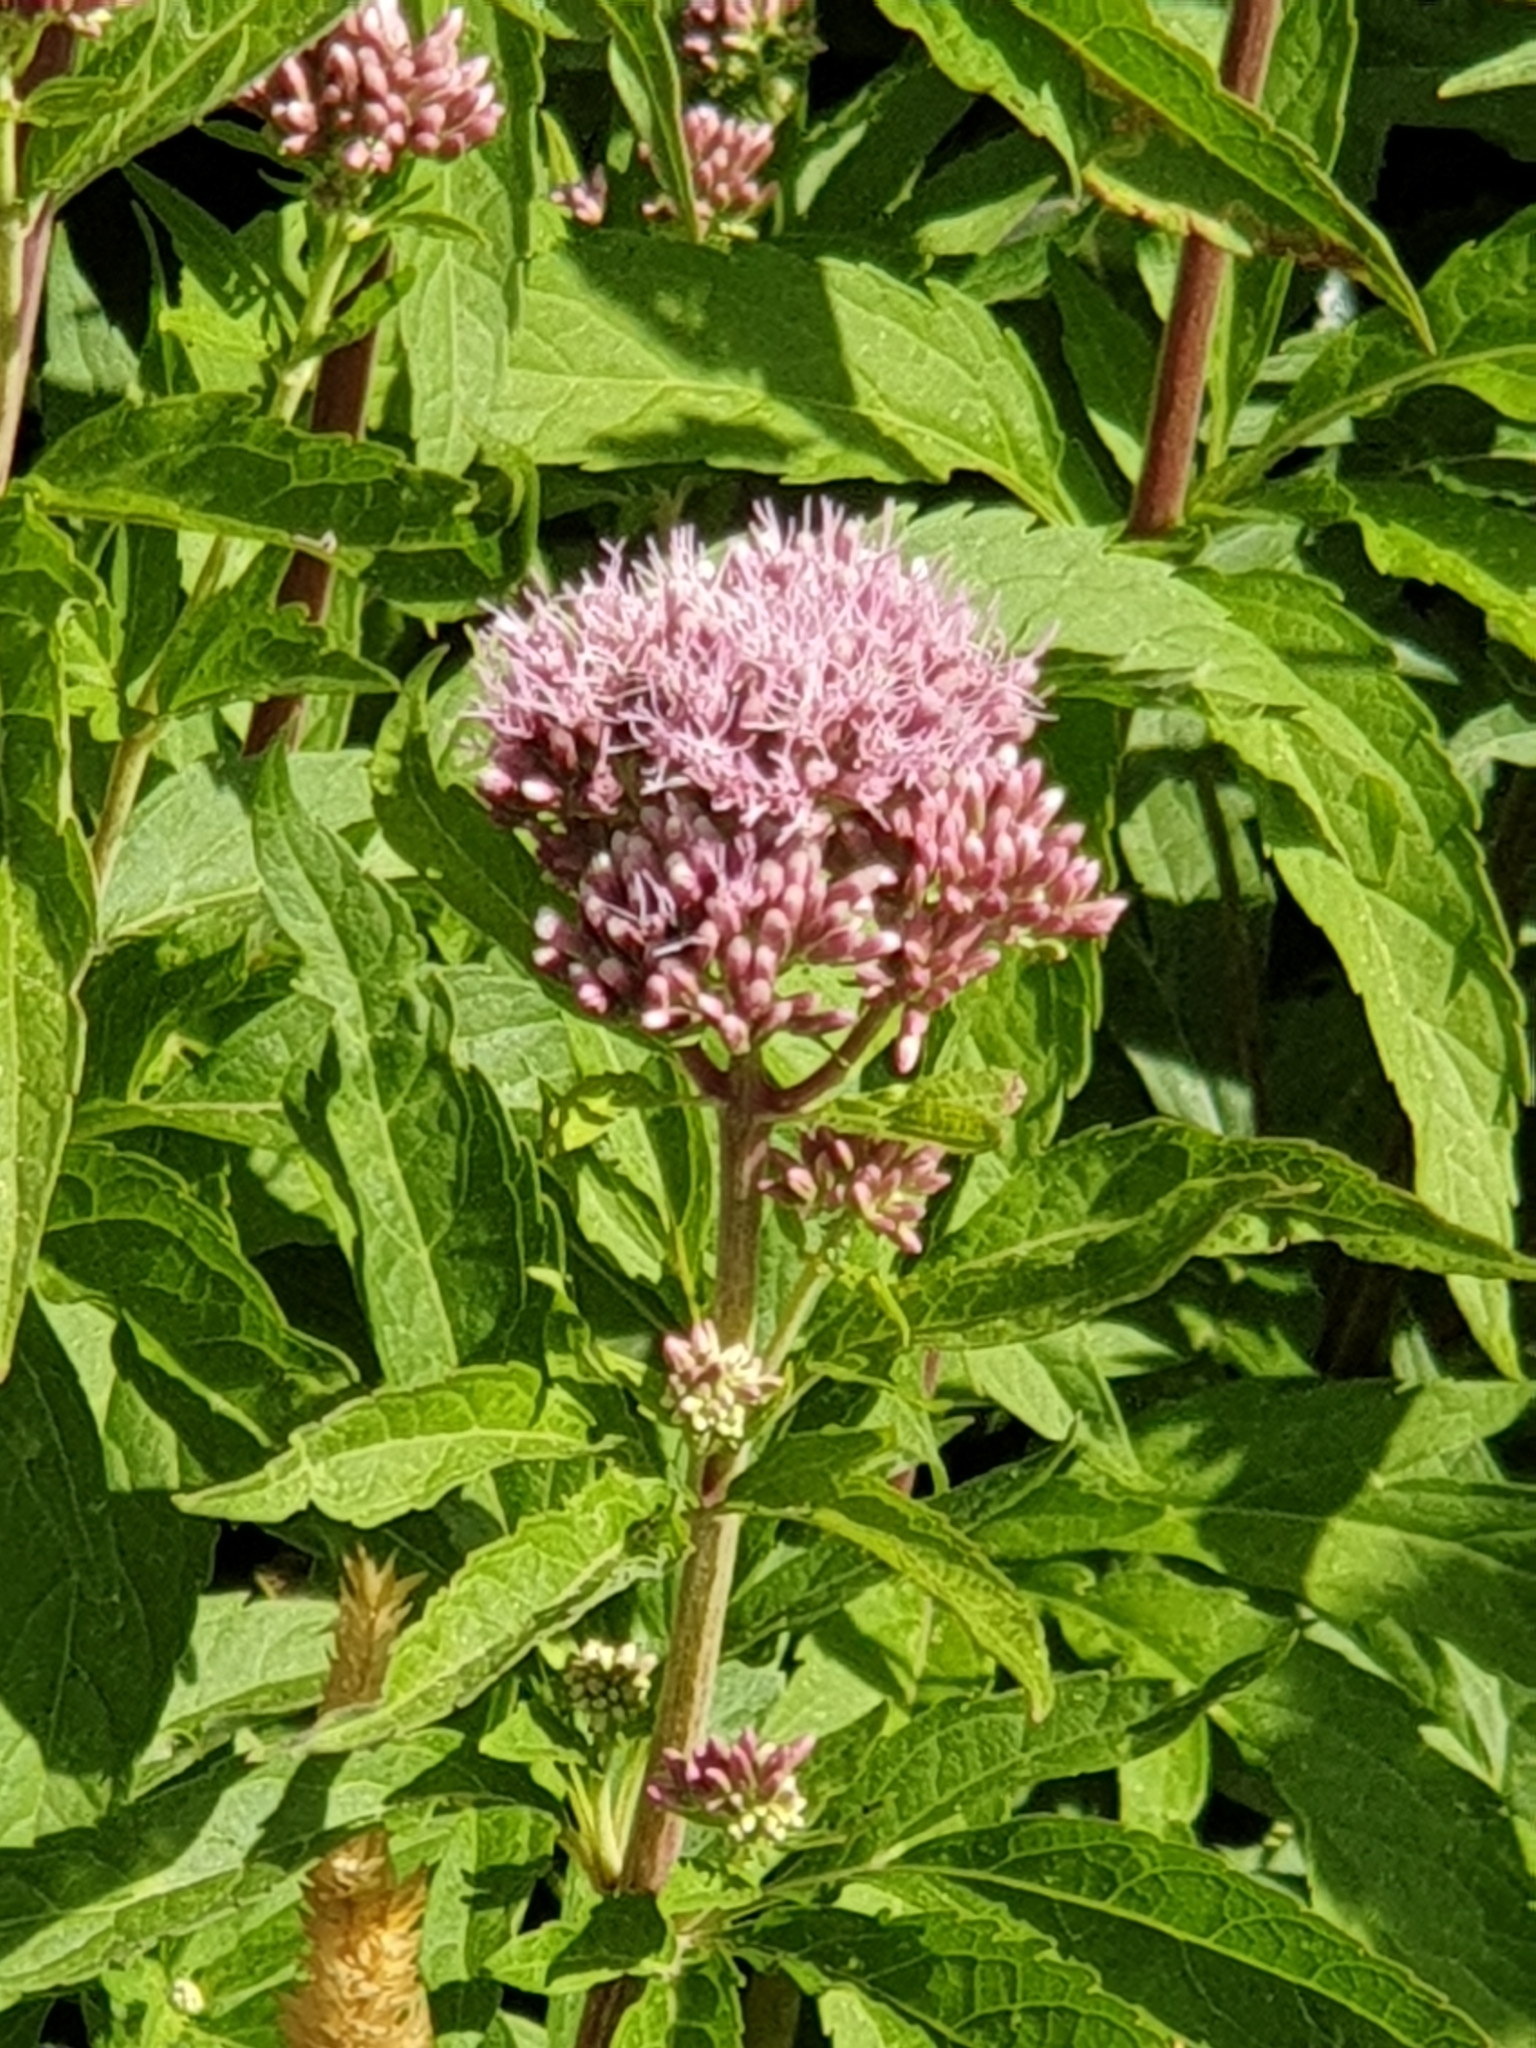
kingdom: Plantae
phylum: Tracheophyta
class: Magnoliopsida
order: Asterales
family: Asteraceae
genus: Eupatorium
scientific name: Eupatorium cannabinum
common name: Hemp-agrimony
